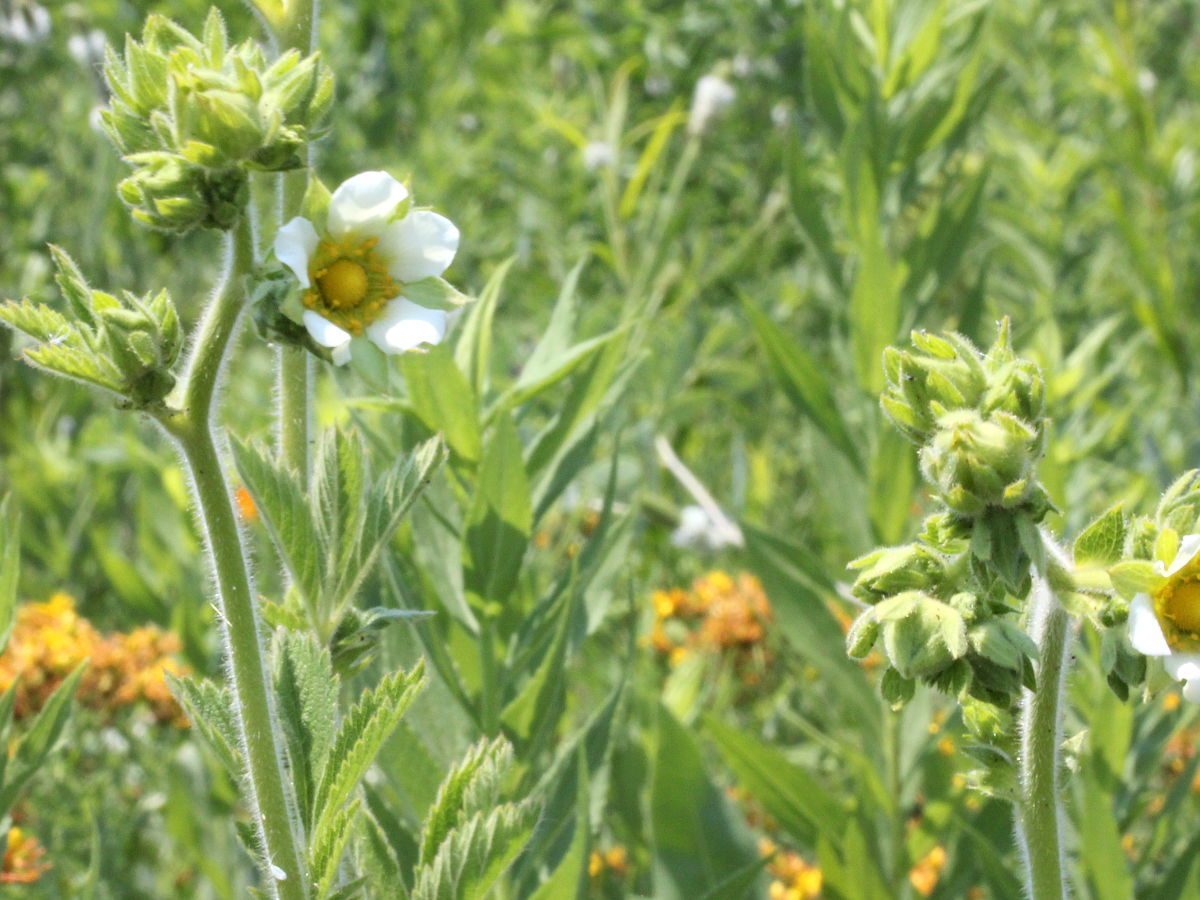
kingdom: Plantae
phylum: Tracheophyta
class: Magnoliopsida
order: Rosales
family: Rosaceae
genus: Drymocallis
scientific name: Drymocallis arguta
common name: Tall cinquefoil
